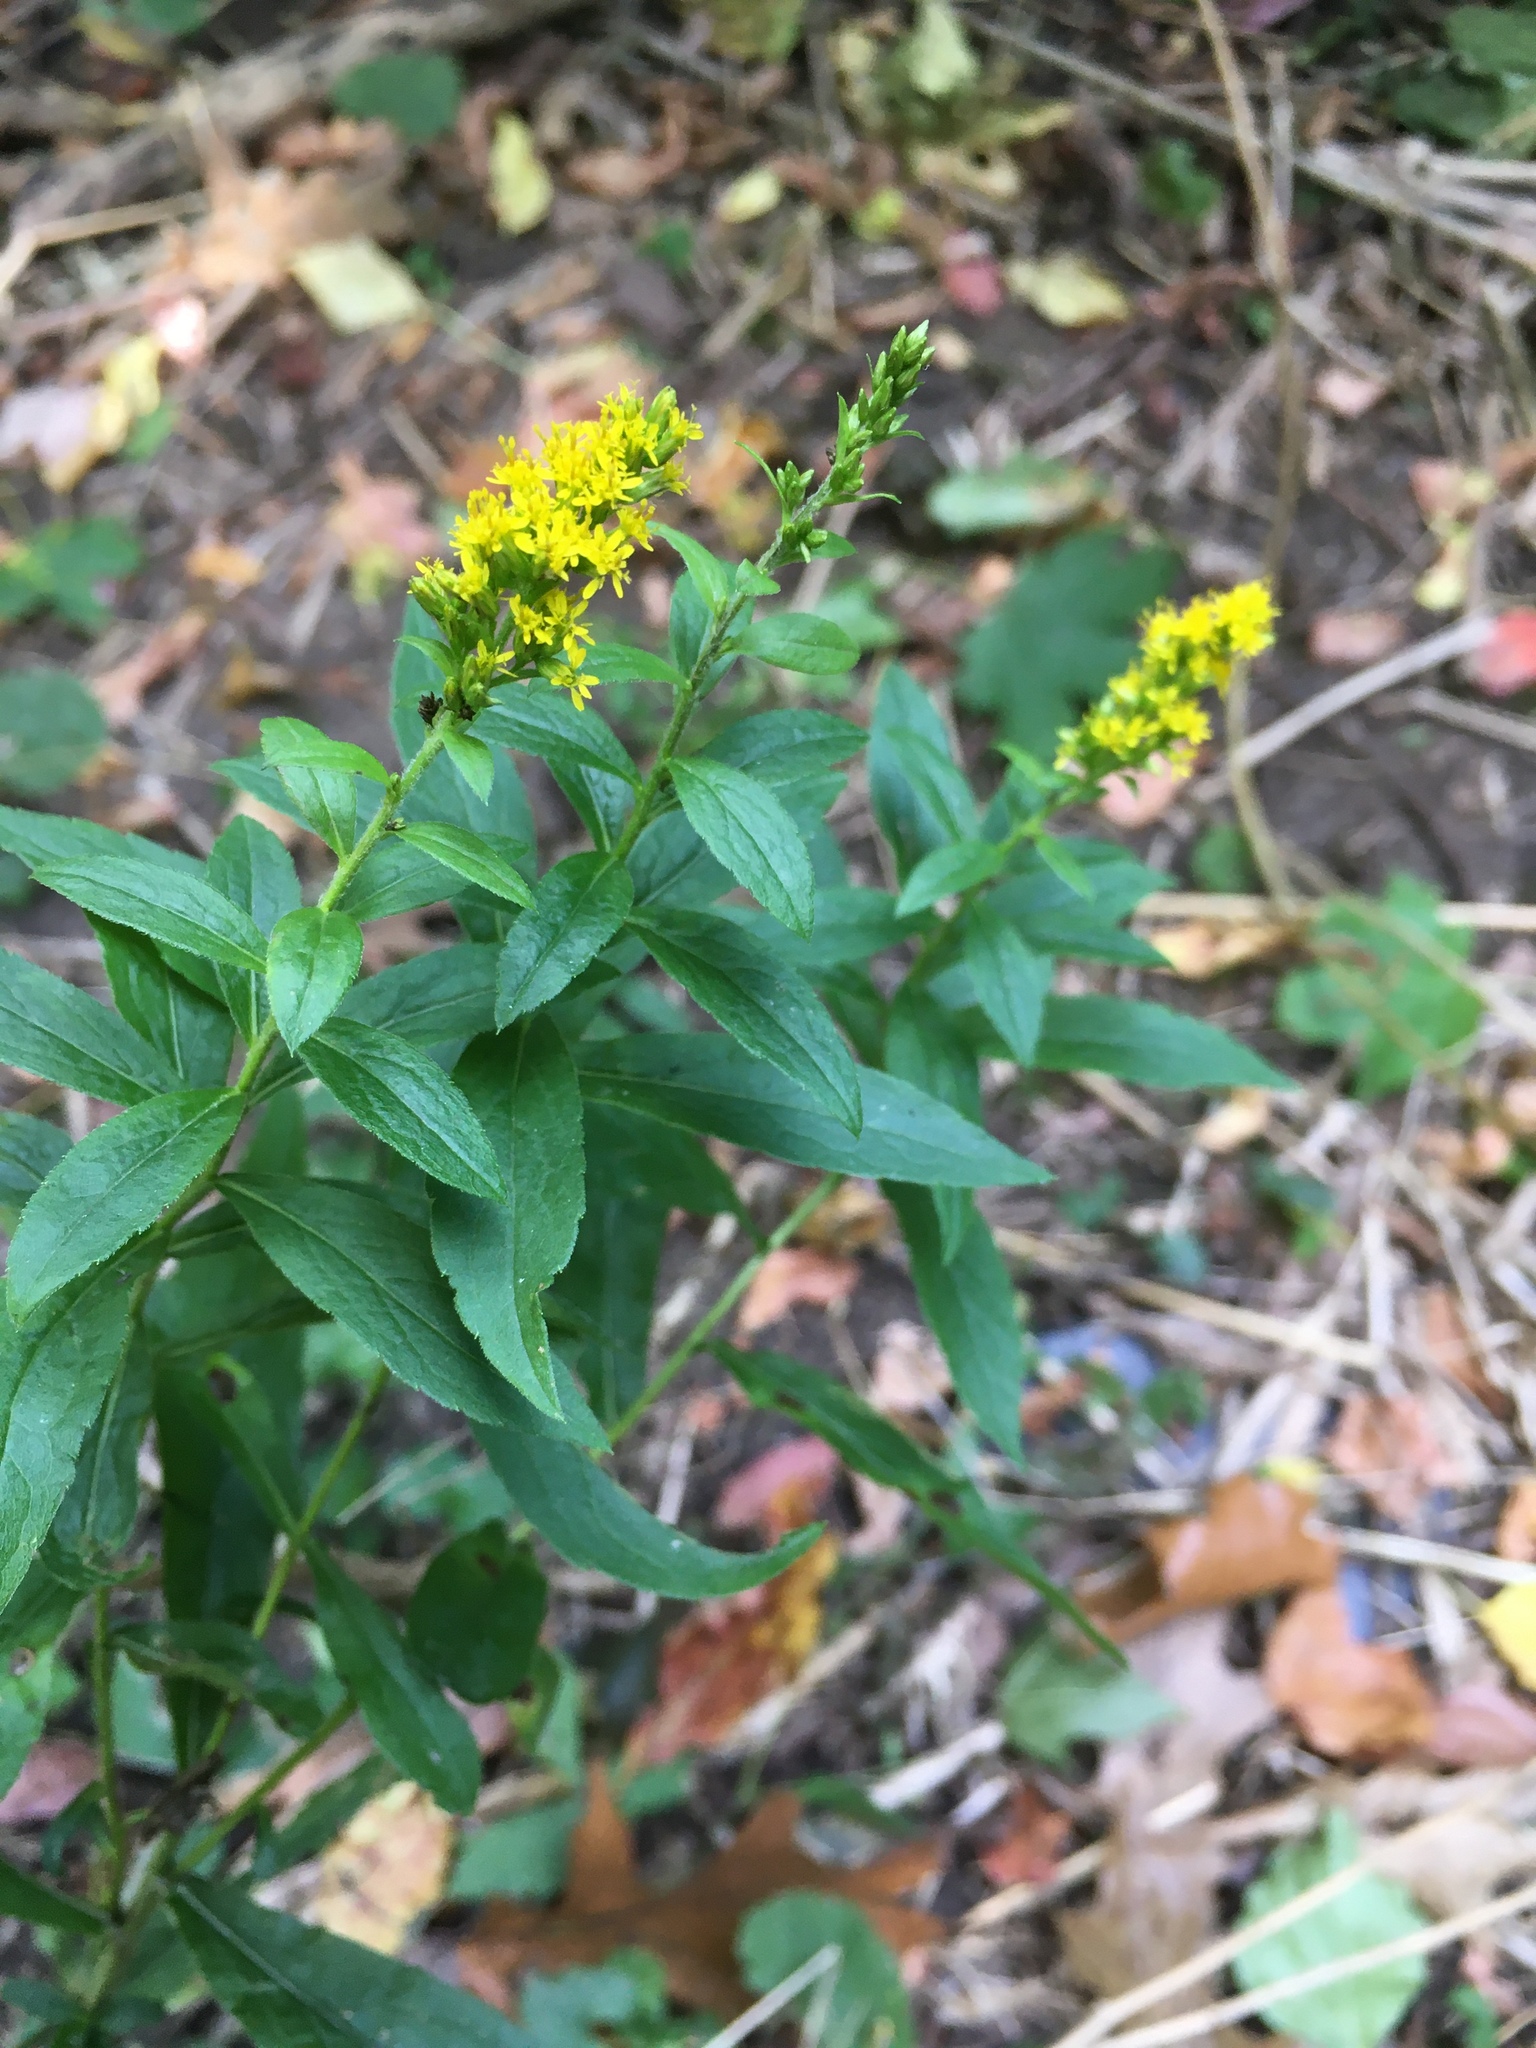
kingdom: Plantae
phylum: Tracheophyta
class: Magnoliopsida
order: Asterales
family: Asteraceae
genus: Solidago
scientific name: Solidago rugosa
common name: Rough-stemmed goldenrod
